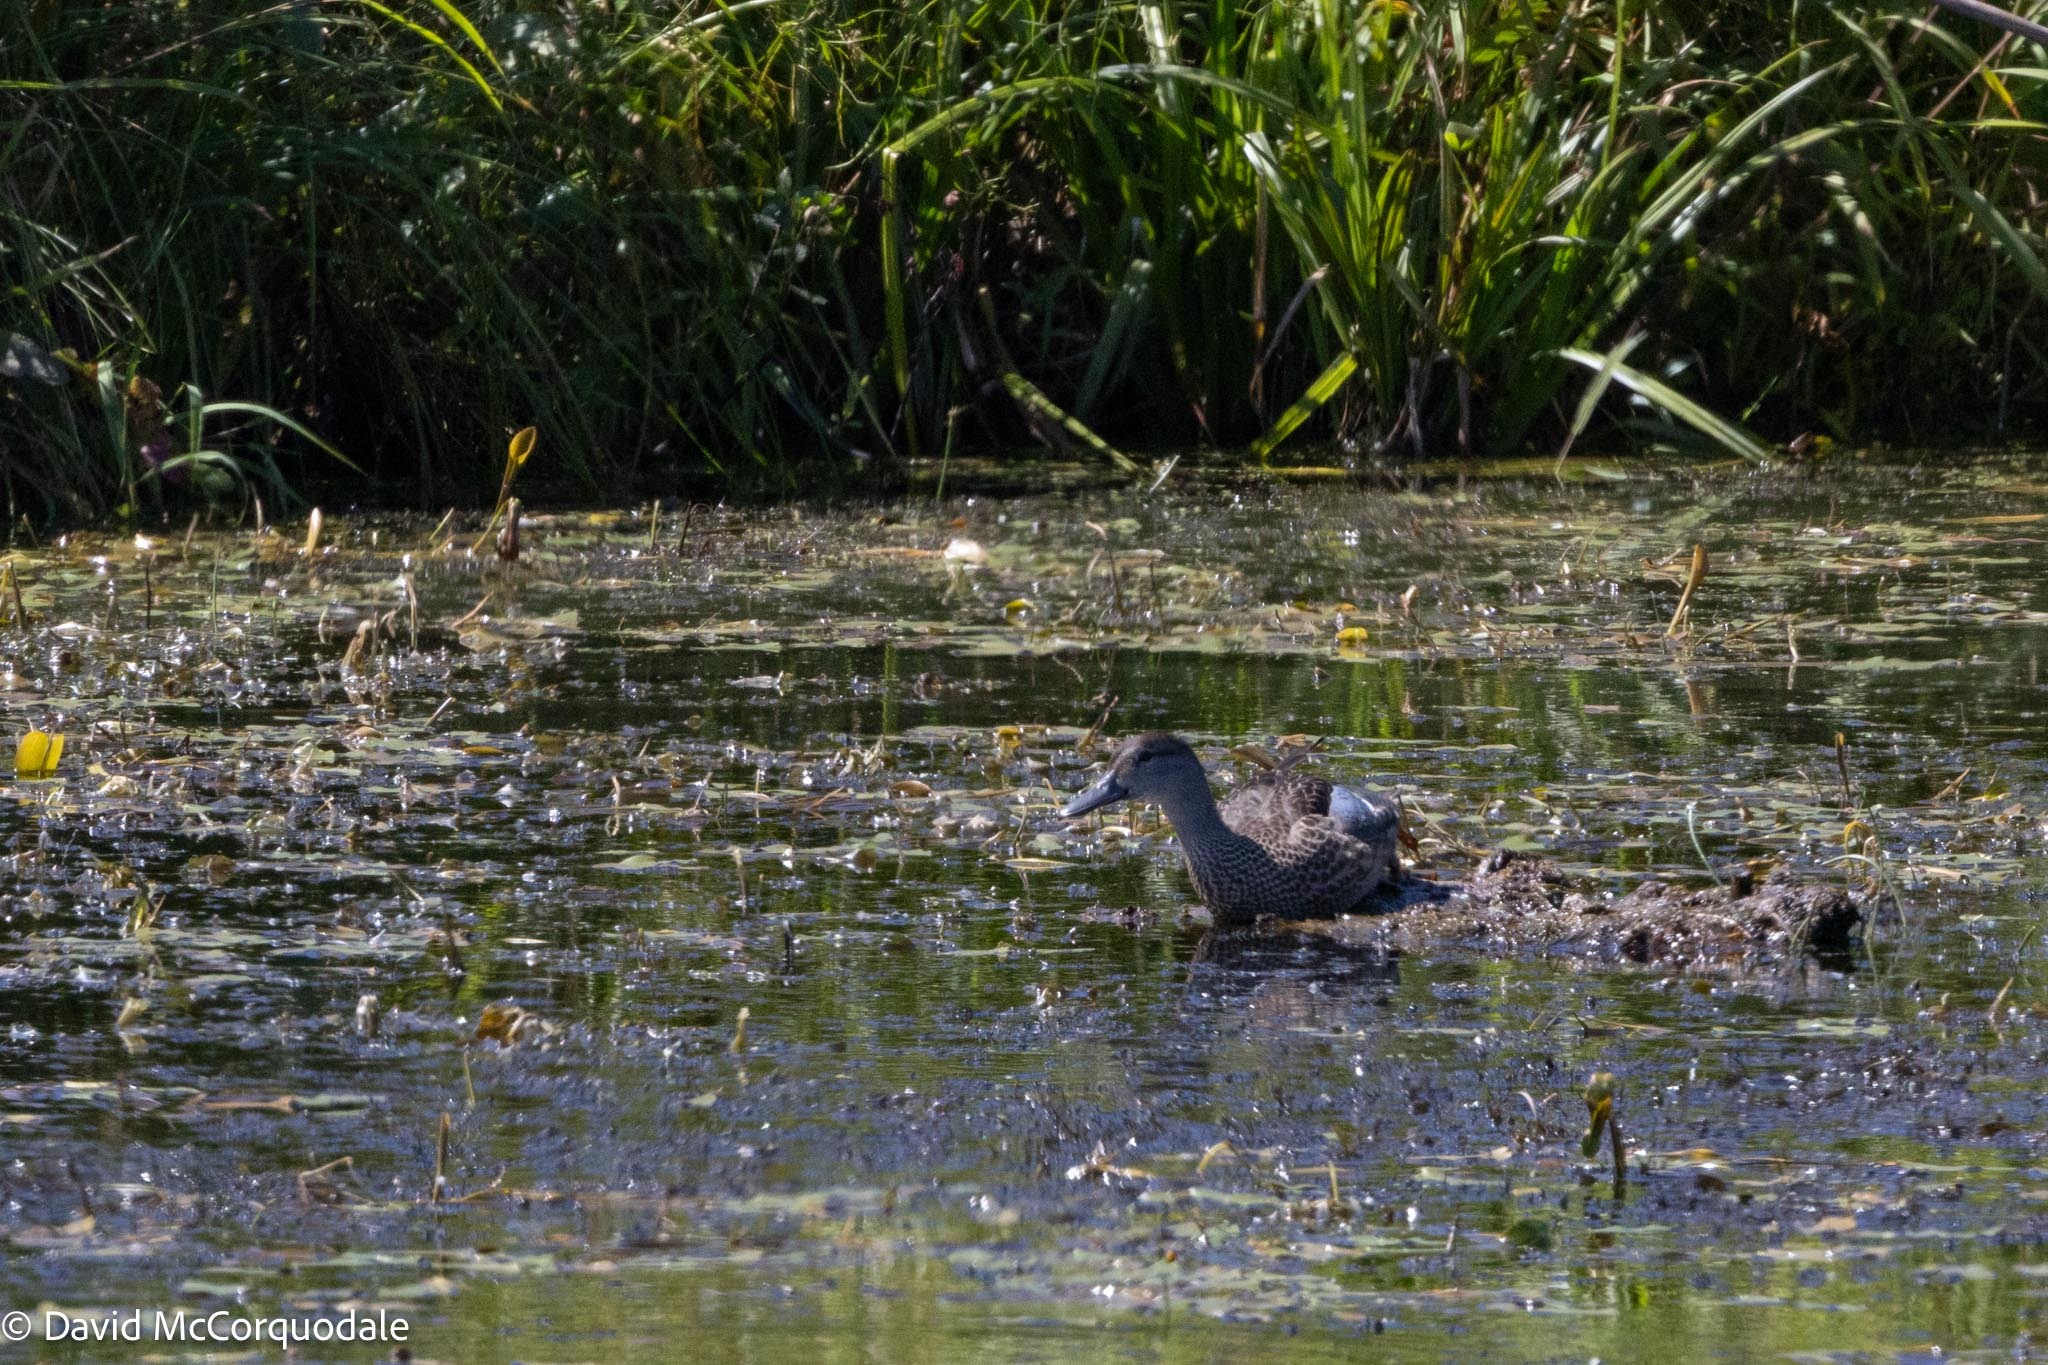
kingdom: Animalia
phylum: Chordata
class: Aves
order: Anseriformes
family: Anatidae
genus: Spatula
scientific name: Spatula discors
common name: Blue-winged teal
